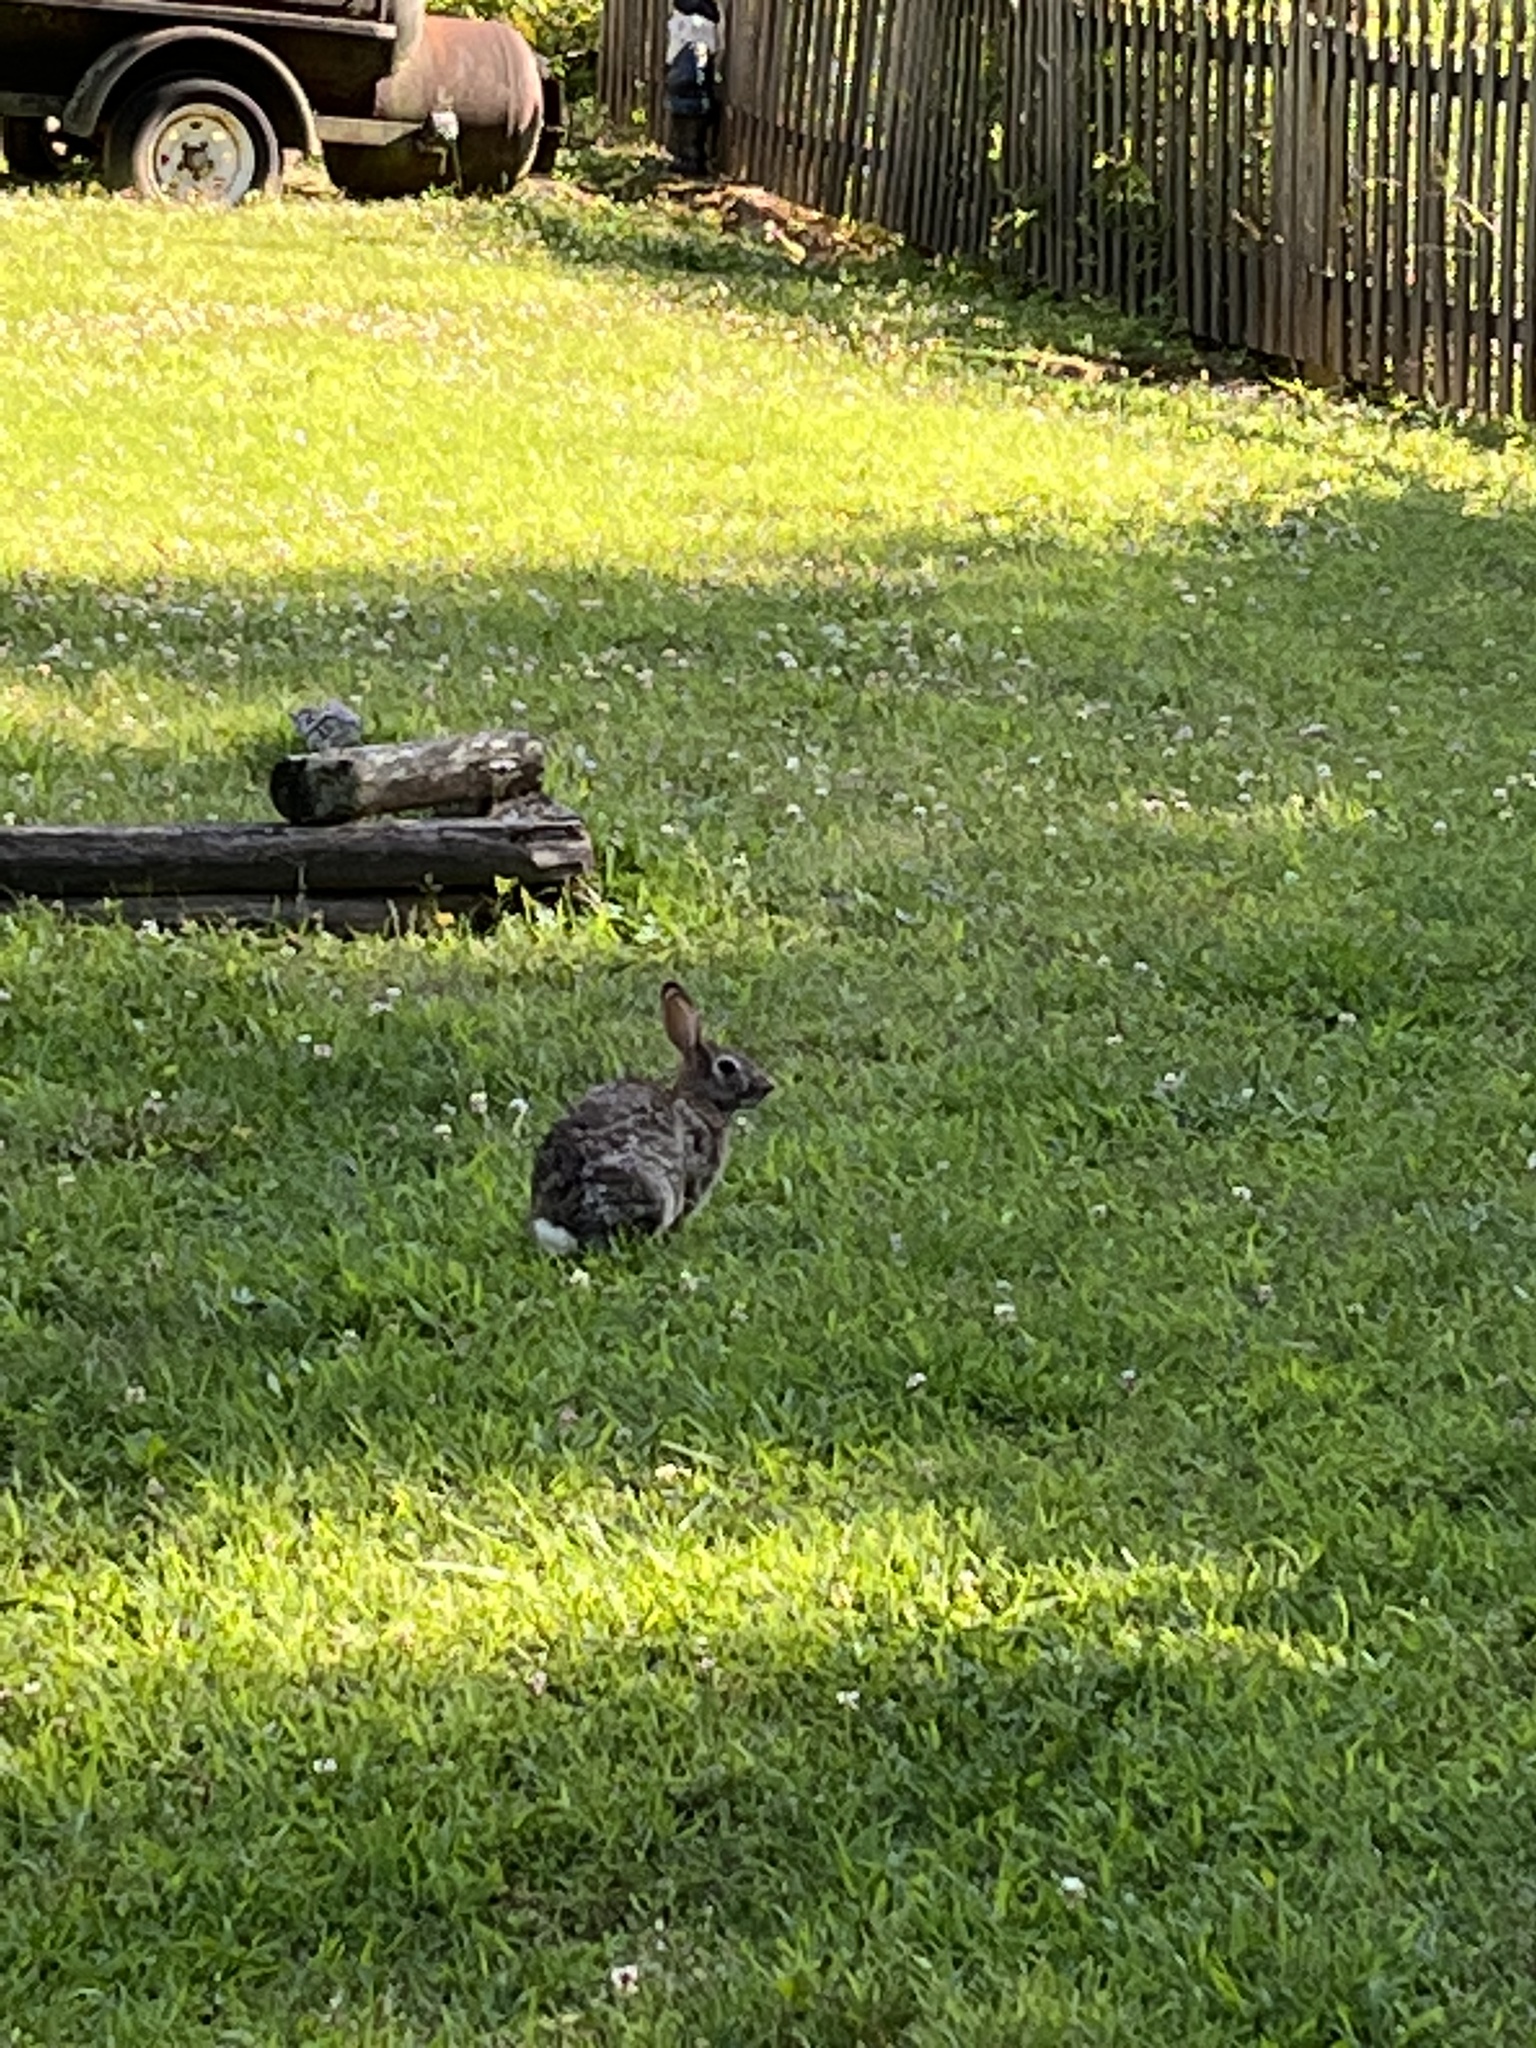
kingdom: Animalia
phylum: Chordata
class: Mammalia
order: Lagomorpha
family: Leporidae
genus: Sylvilagus
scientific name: Sylvilagus floridanus
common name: Eastern cottontail
